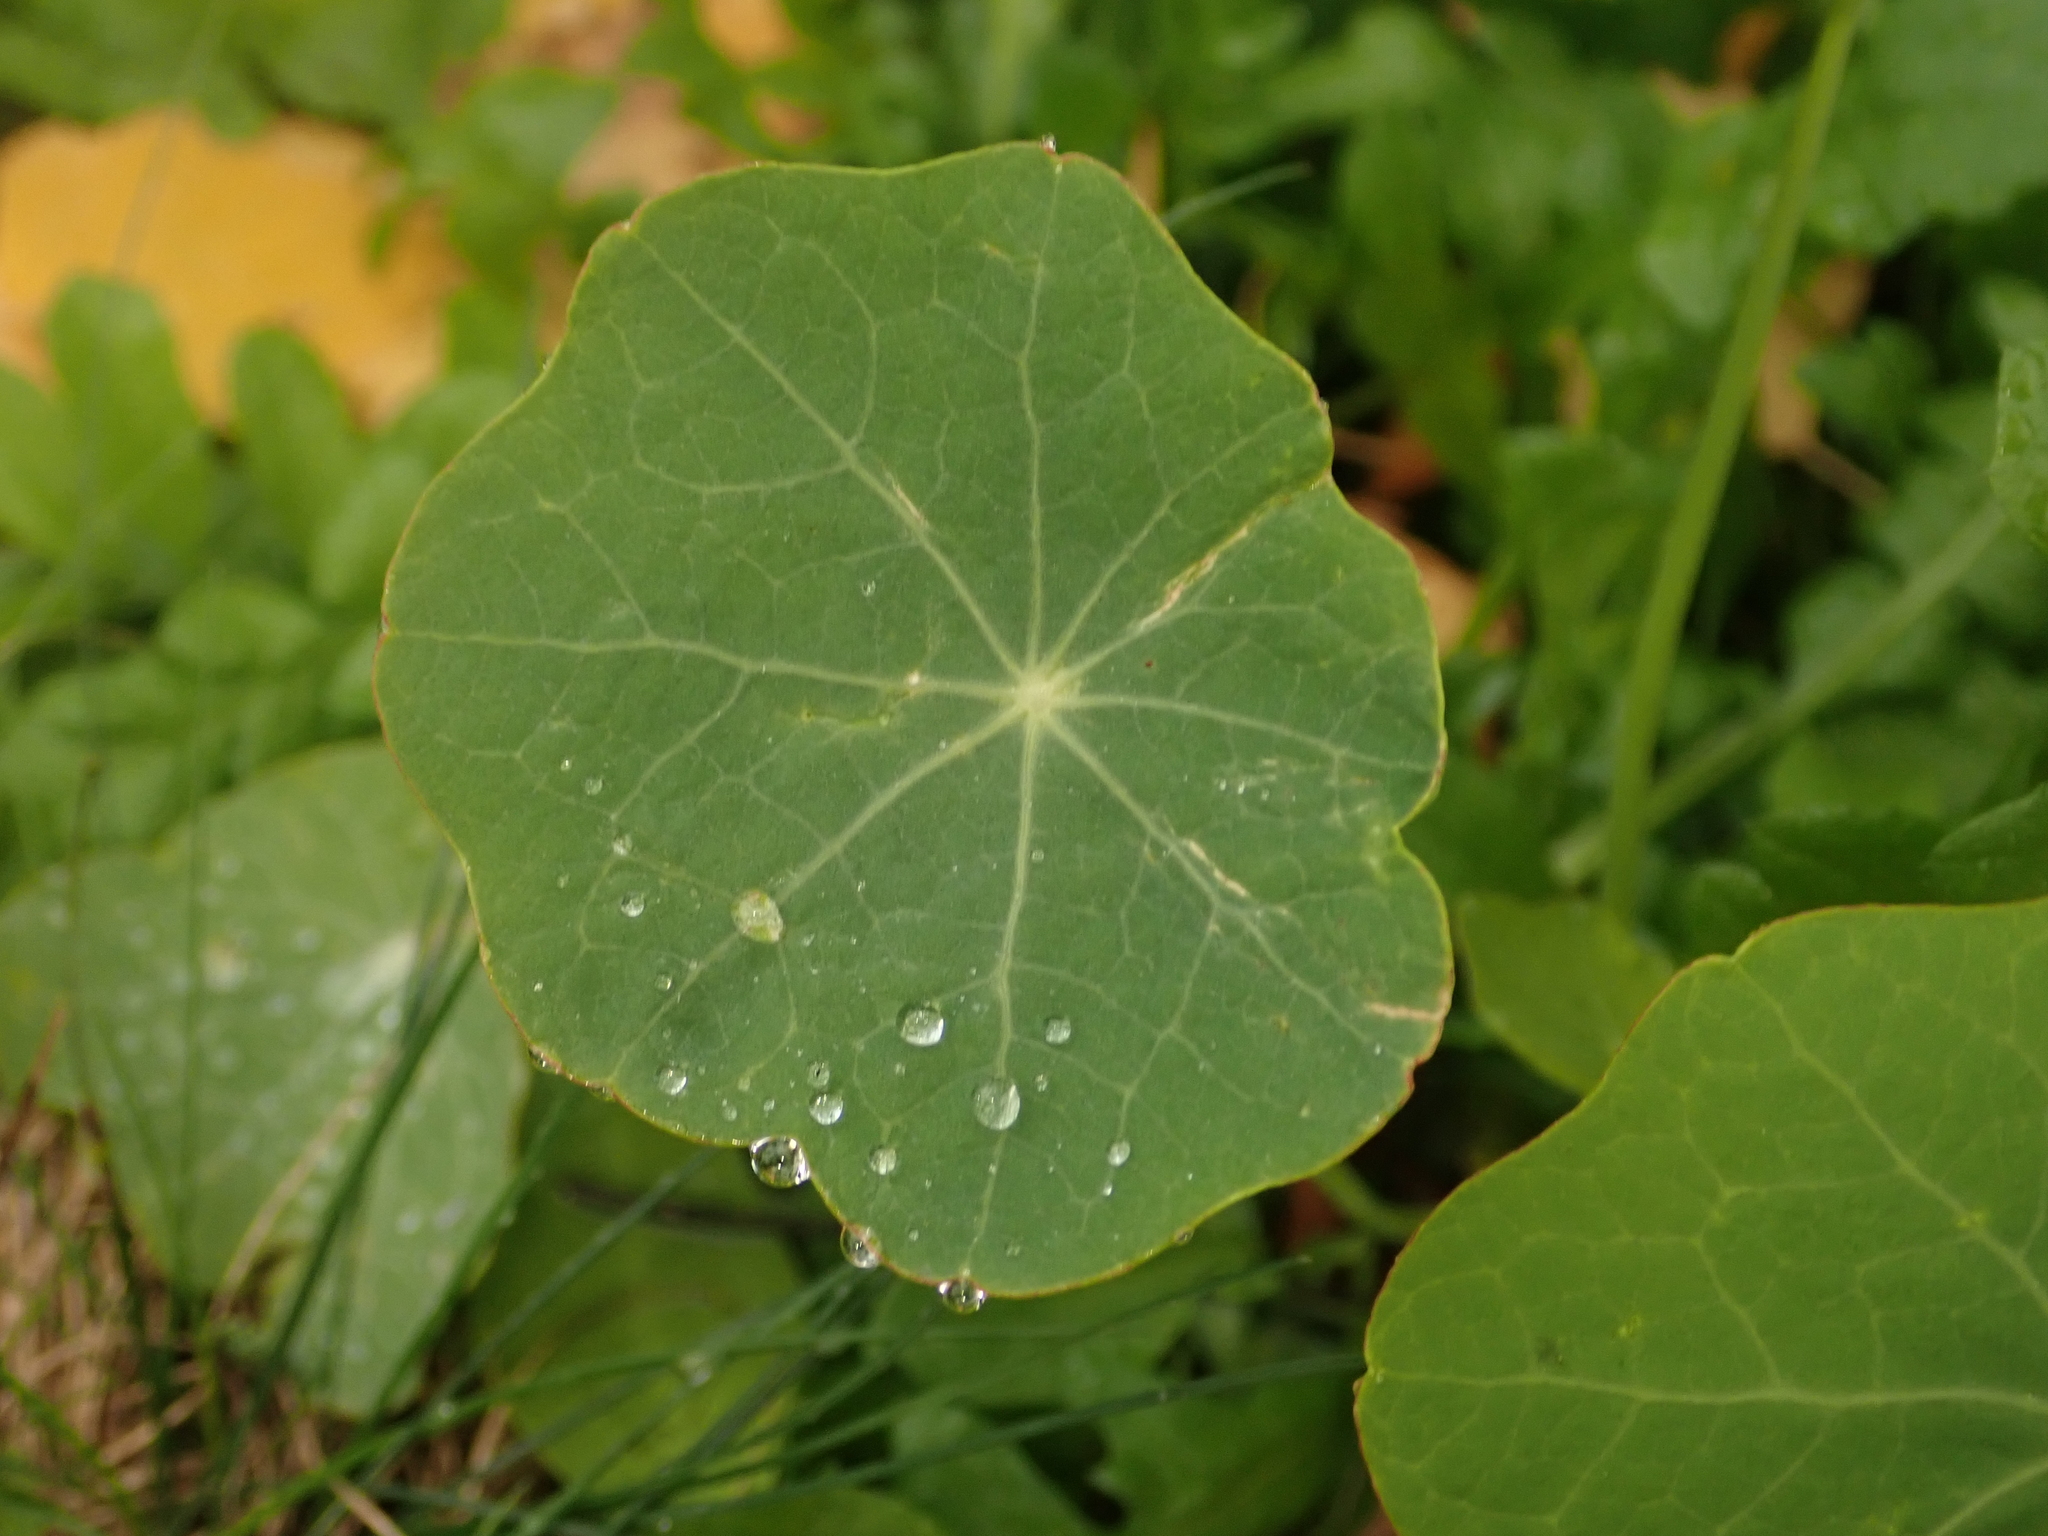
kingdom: Plantae
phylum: Tracheophyta
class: Magnoliopsida
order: Brassicales
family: Tropaeolaceae
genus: Tropaeolum
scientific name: Tropaeolum majus
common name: Nasturtium
